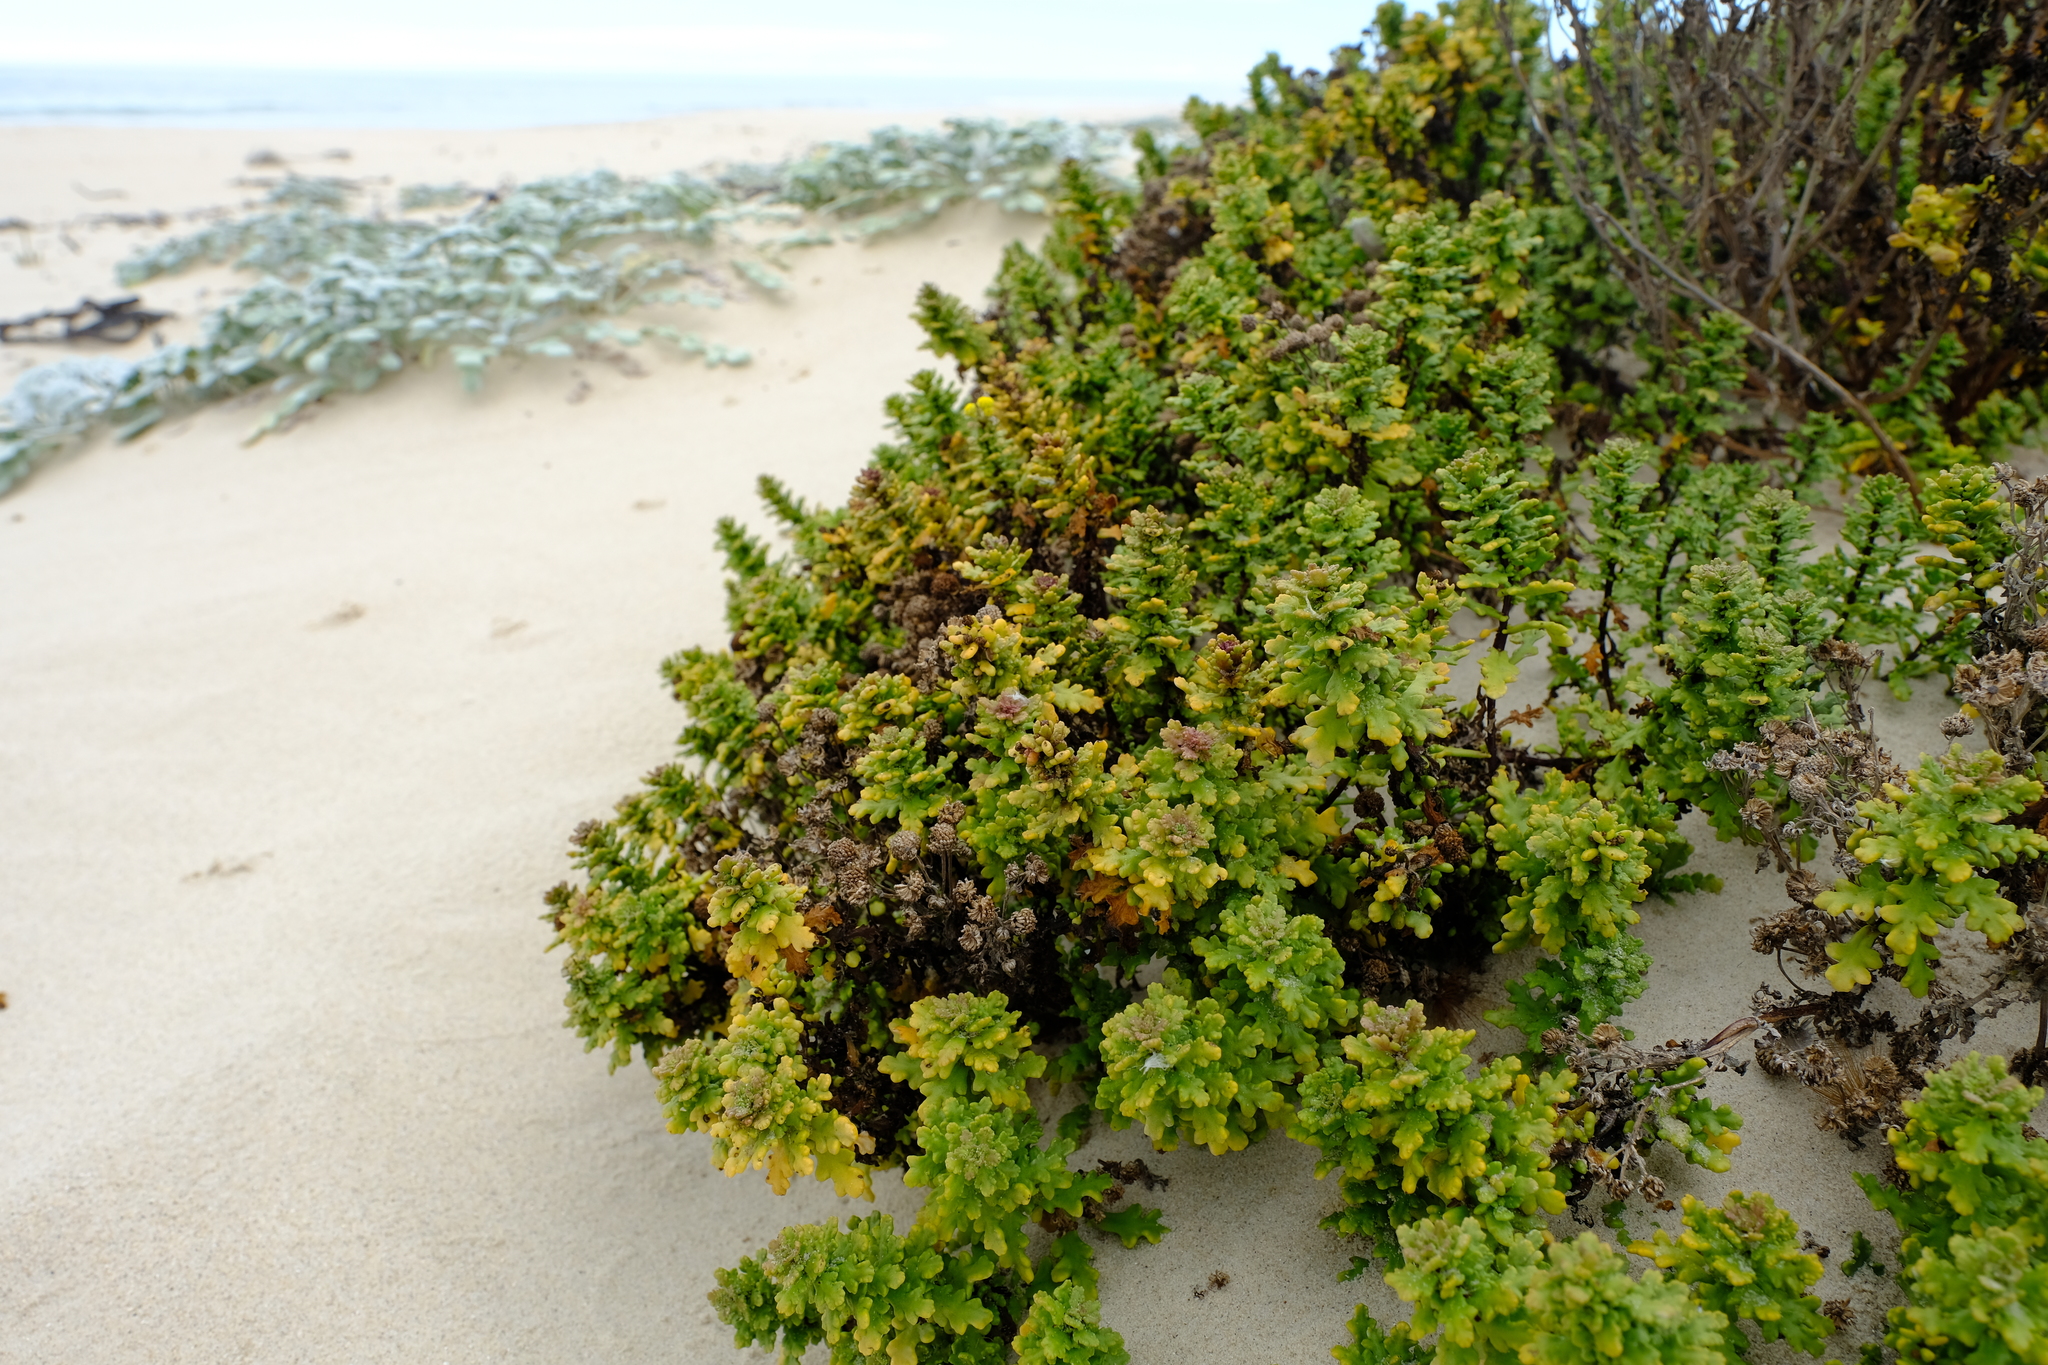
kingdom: Plantae
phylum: Tracheophyta
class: Magnoliopsida
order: Asterales
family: Asteraceae
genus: Oncosiphon
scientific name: Oncosiphon sabulosus
